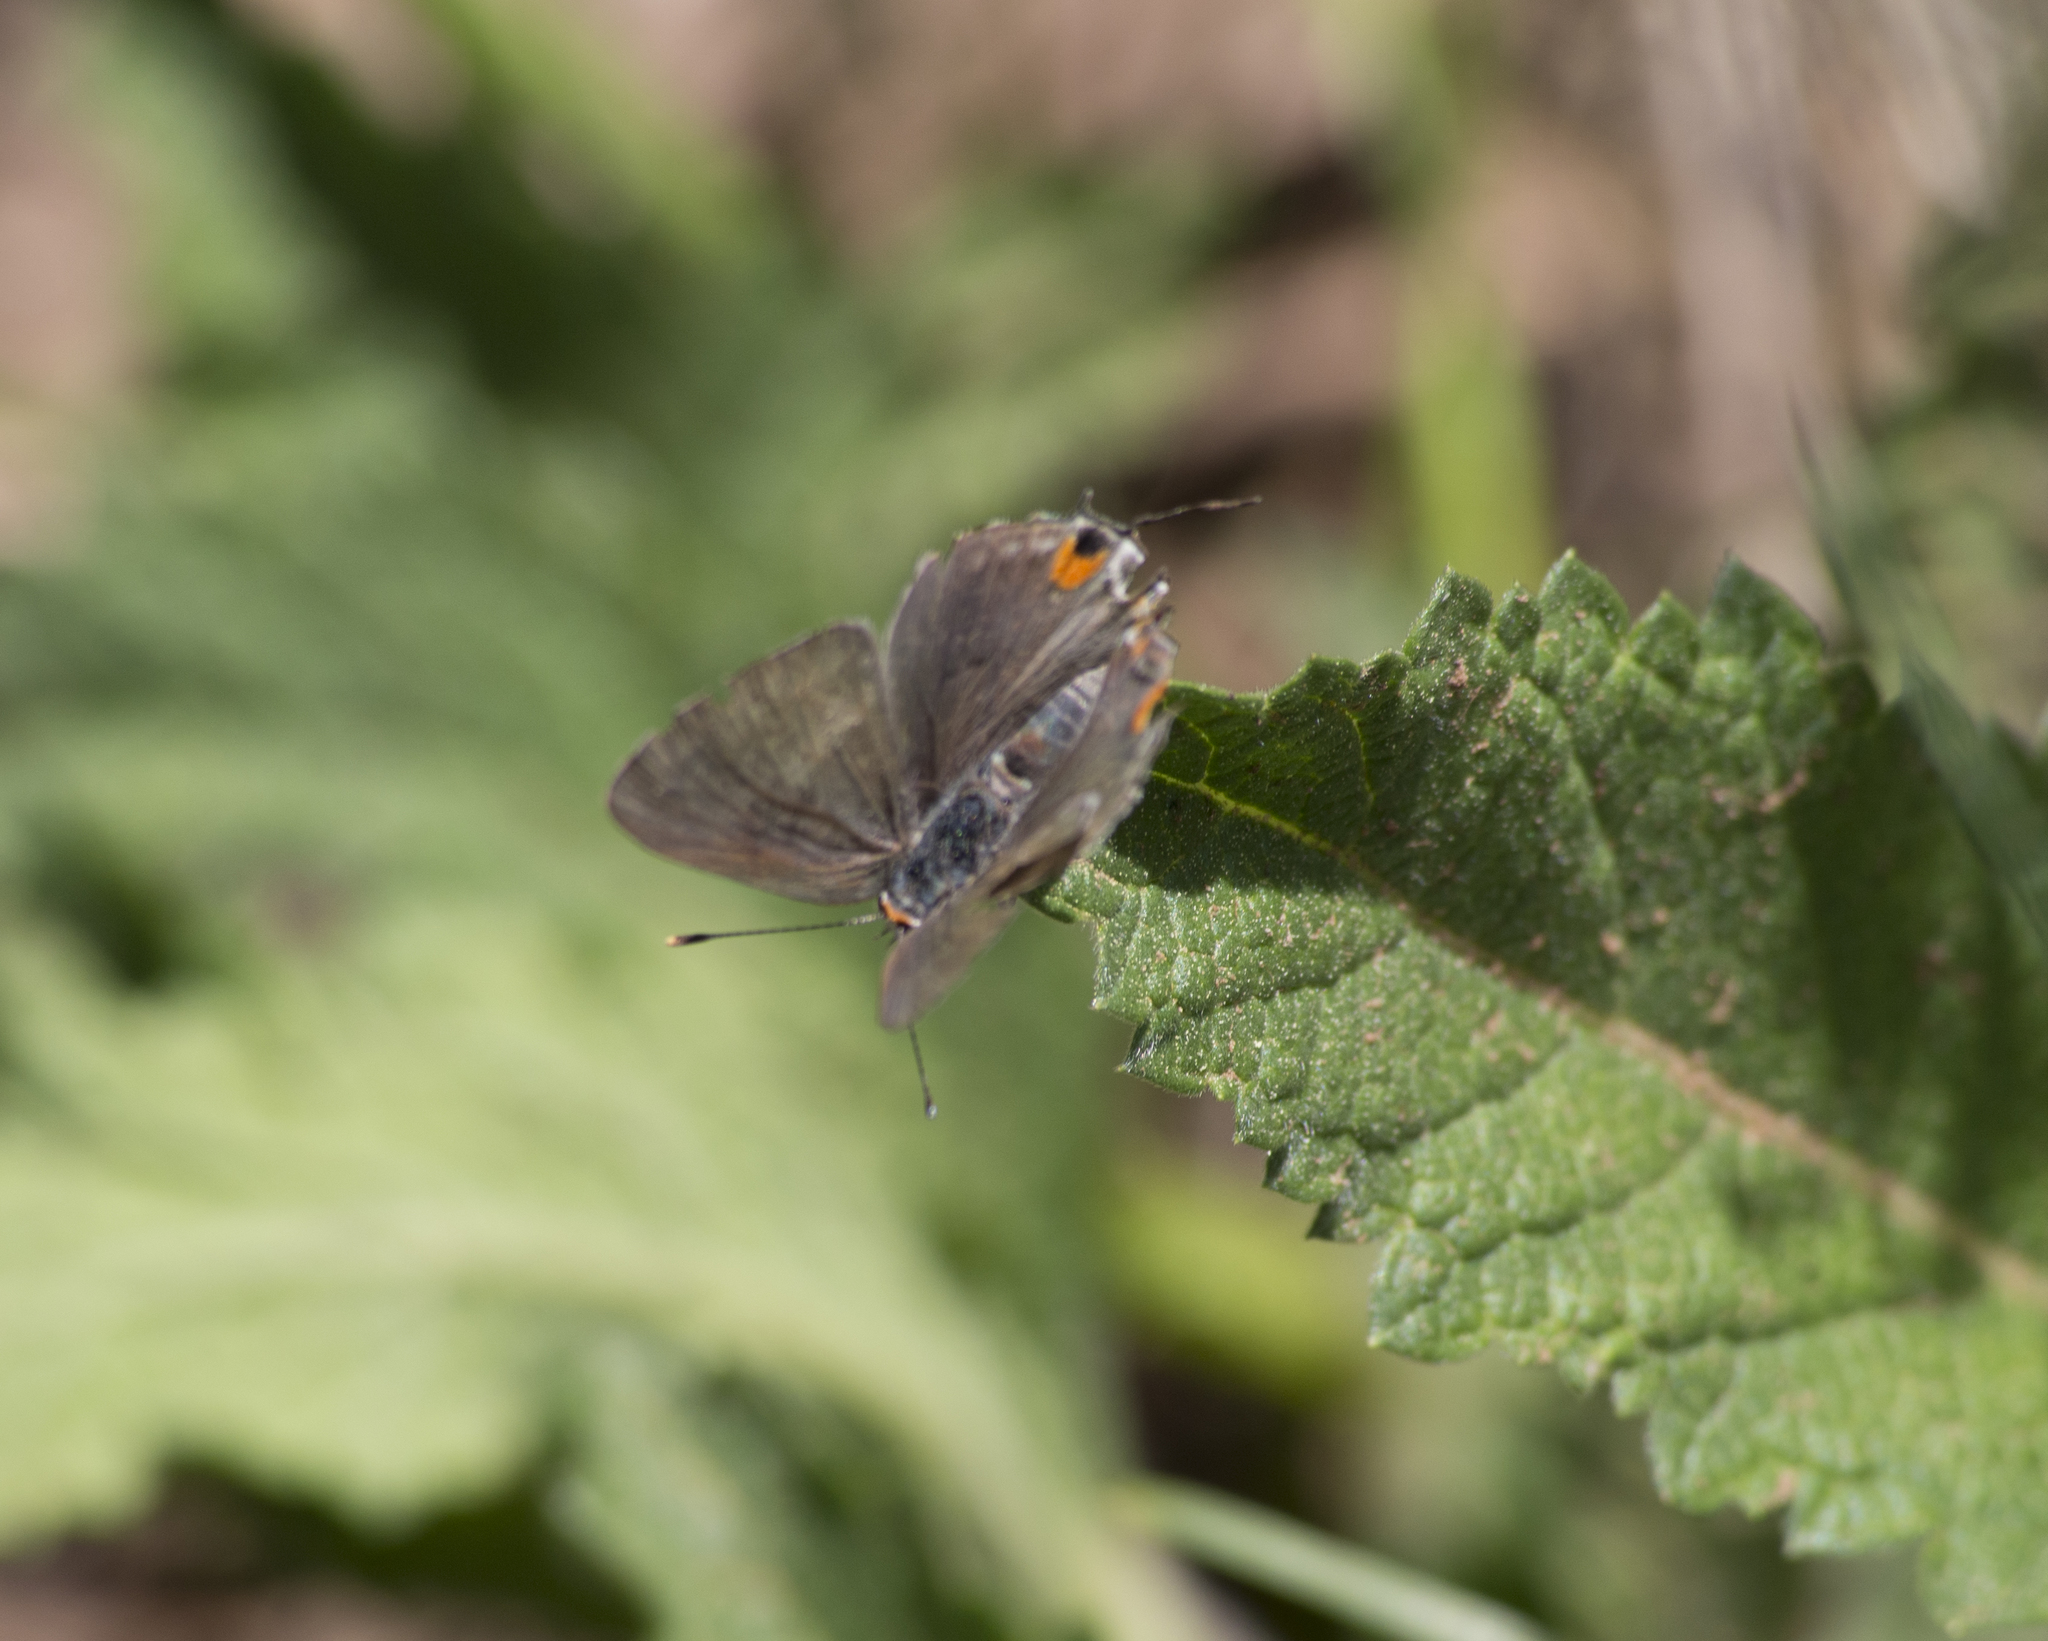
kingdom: Animalia
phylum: Arthropoda
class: Insecta
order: Lepidoptera
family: Lycaenidae
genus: Strymon
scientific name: Strymon melinus
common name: Gray hairstreak
